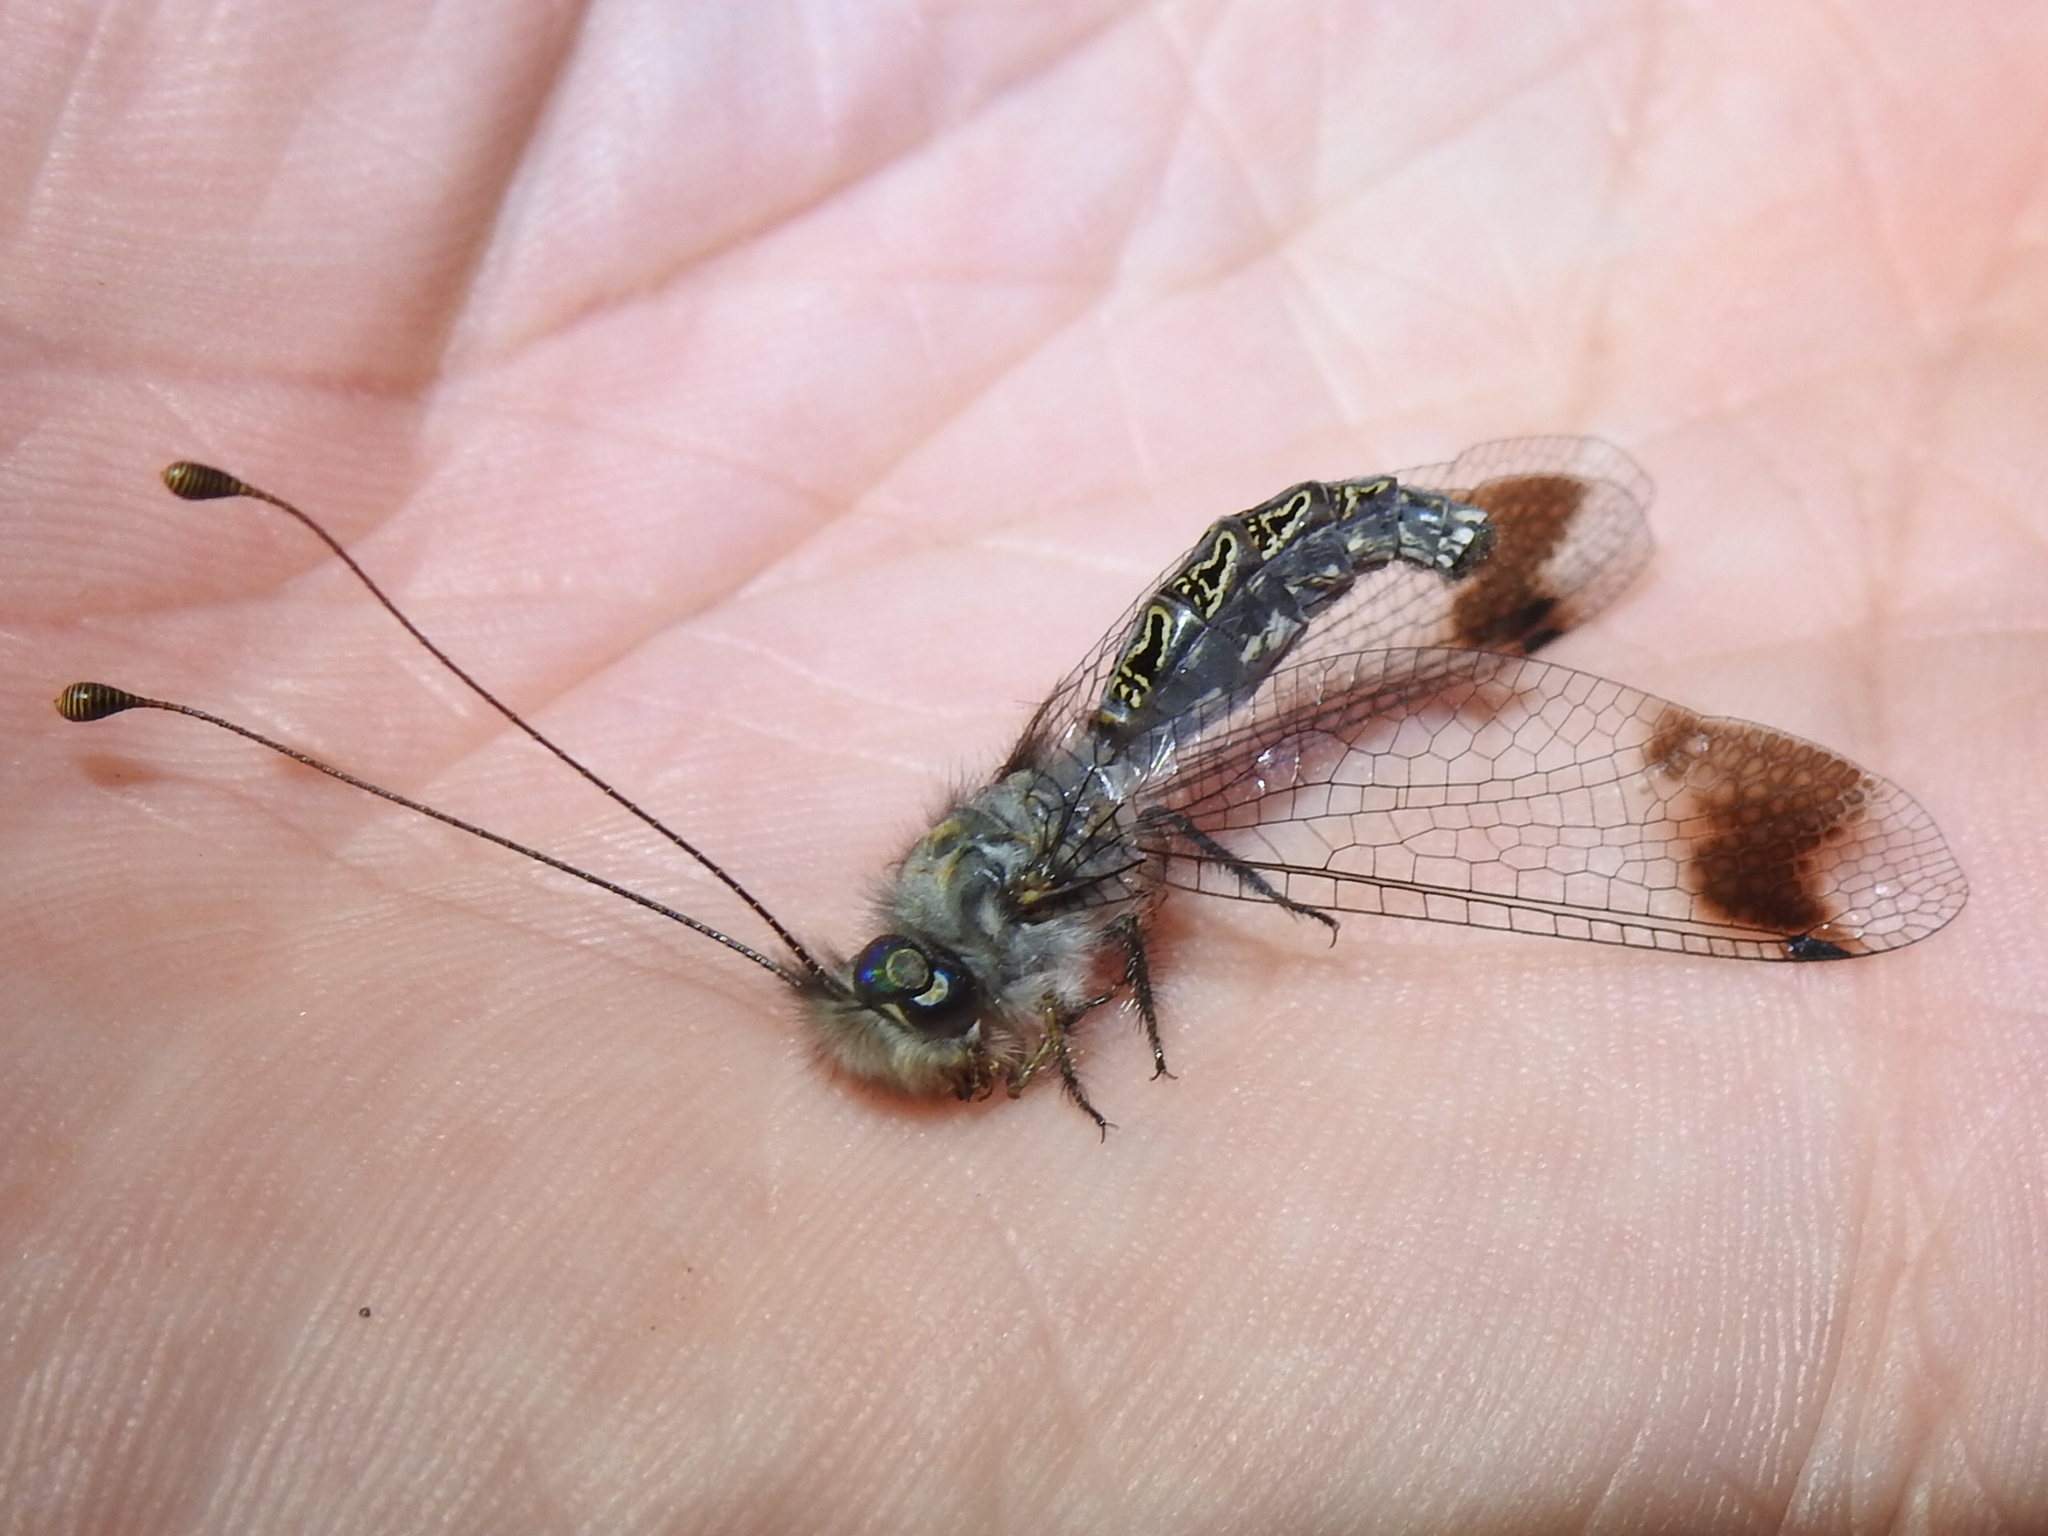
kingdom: Animalia
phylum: Arthropoda
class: Insecta
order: Neuroptera
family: Ascalaphidae
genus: Ululodes
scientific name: Ululodes macleayanus
